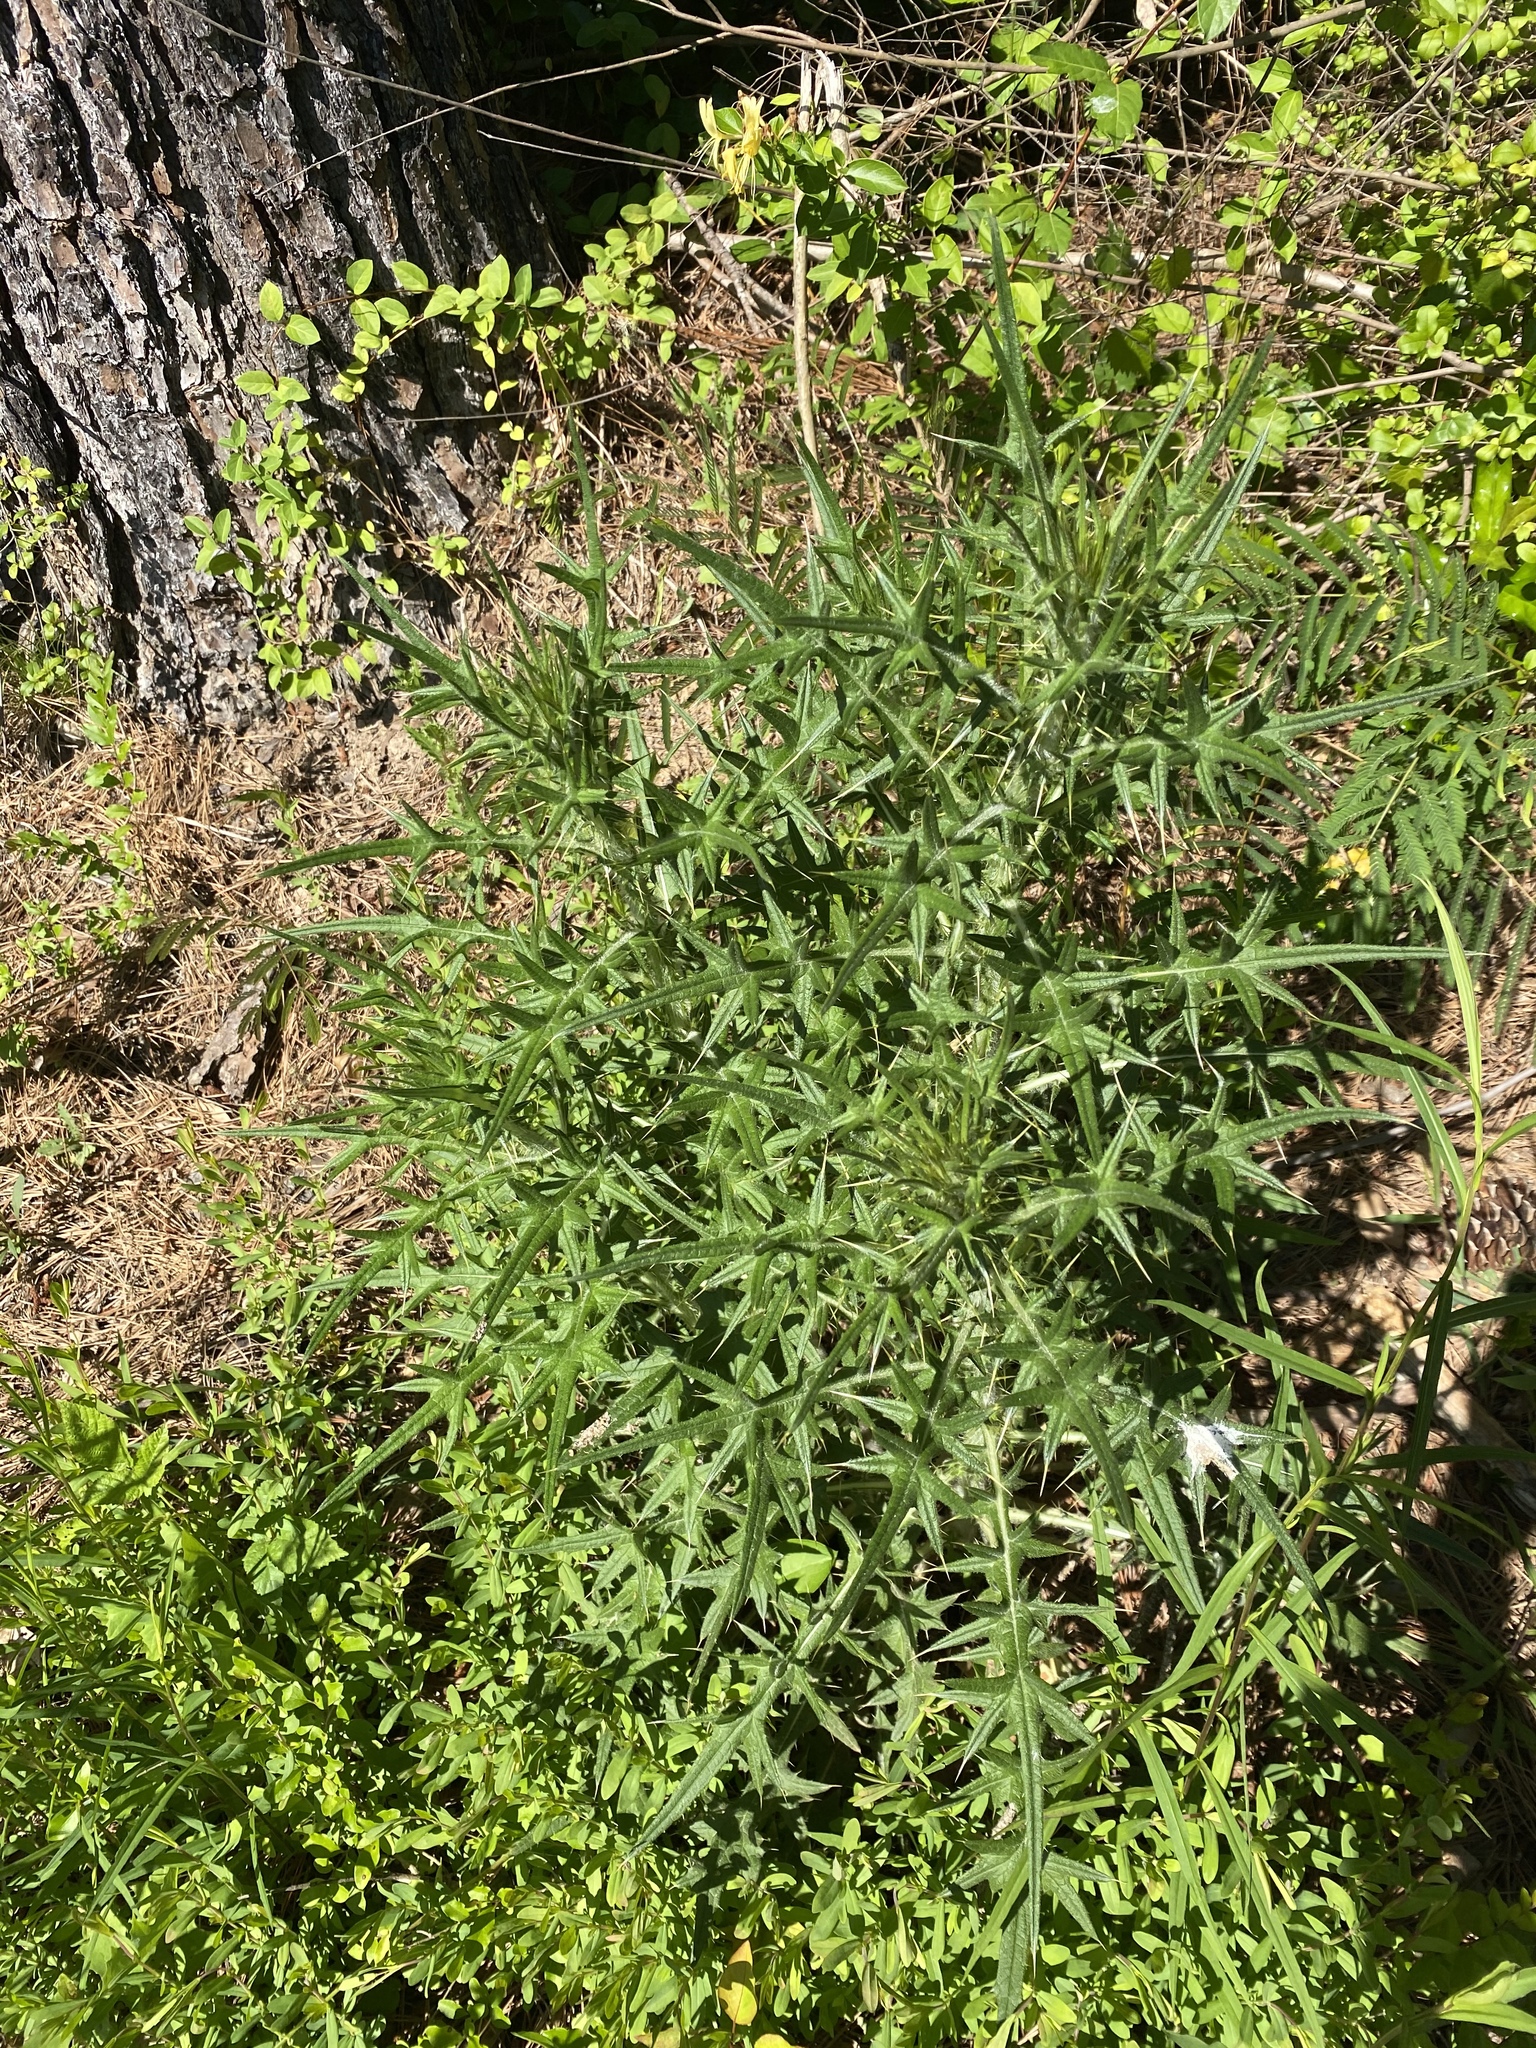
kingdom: Plantae
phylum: Tracheophyta
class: Magnoliopsida
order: Asterales
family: Asteraceae
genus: Cirsium
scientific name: Cirsium vulgare
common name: Bull thistle
